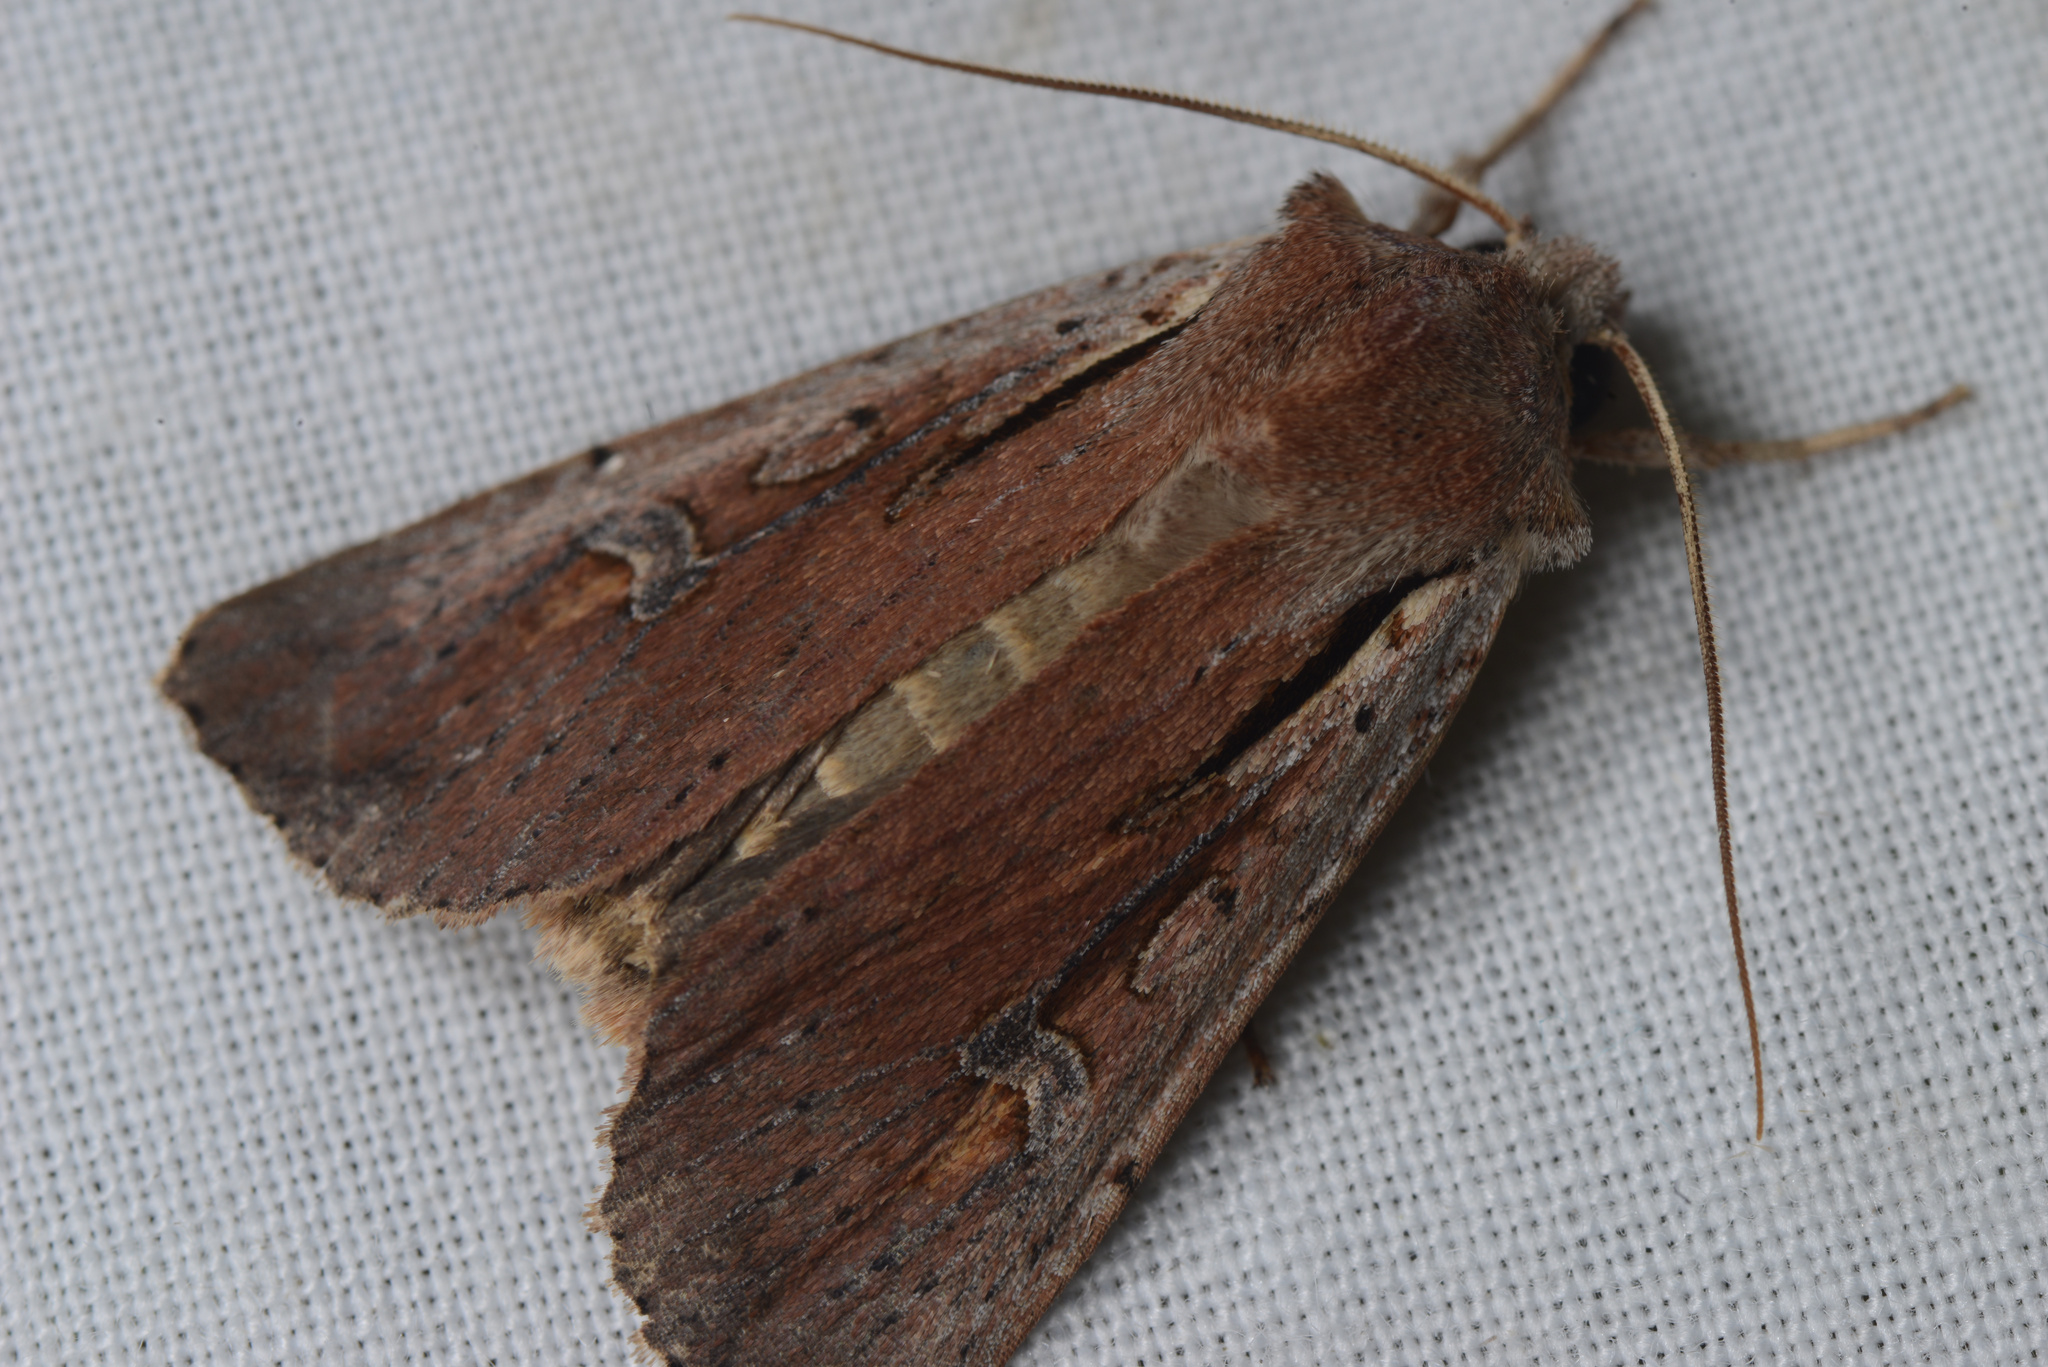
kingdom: Animalia
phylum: Arthropoda
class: Insecta
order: Lepidoptera
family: Noctuidae
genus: Ichneutica
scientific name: Ichneutica atristriga
